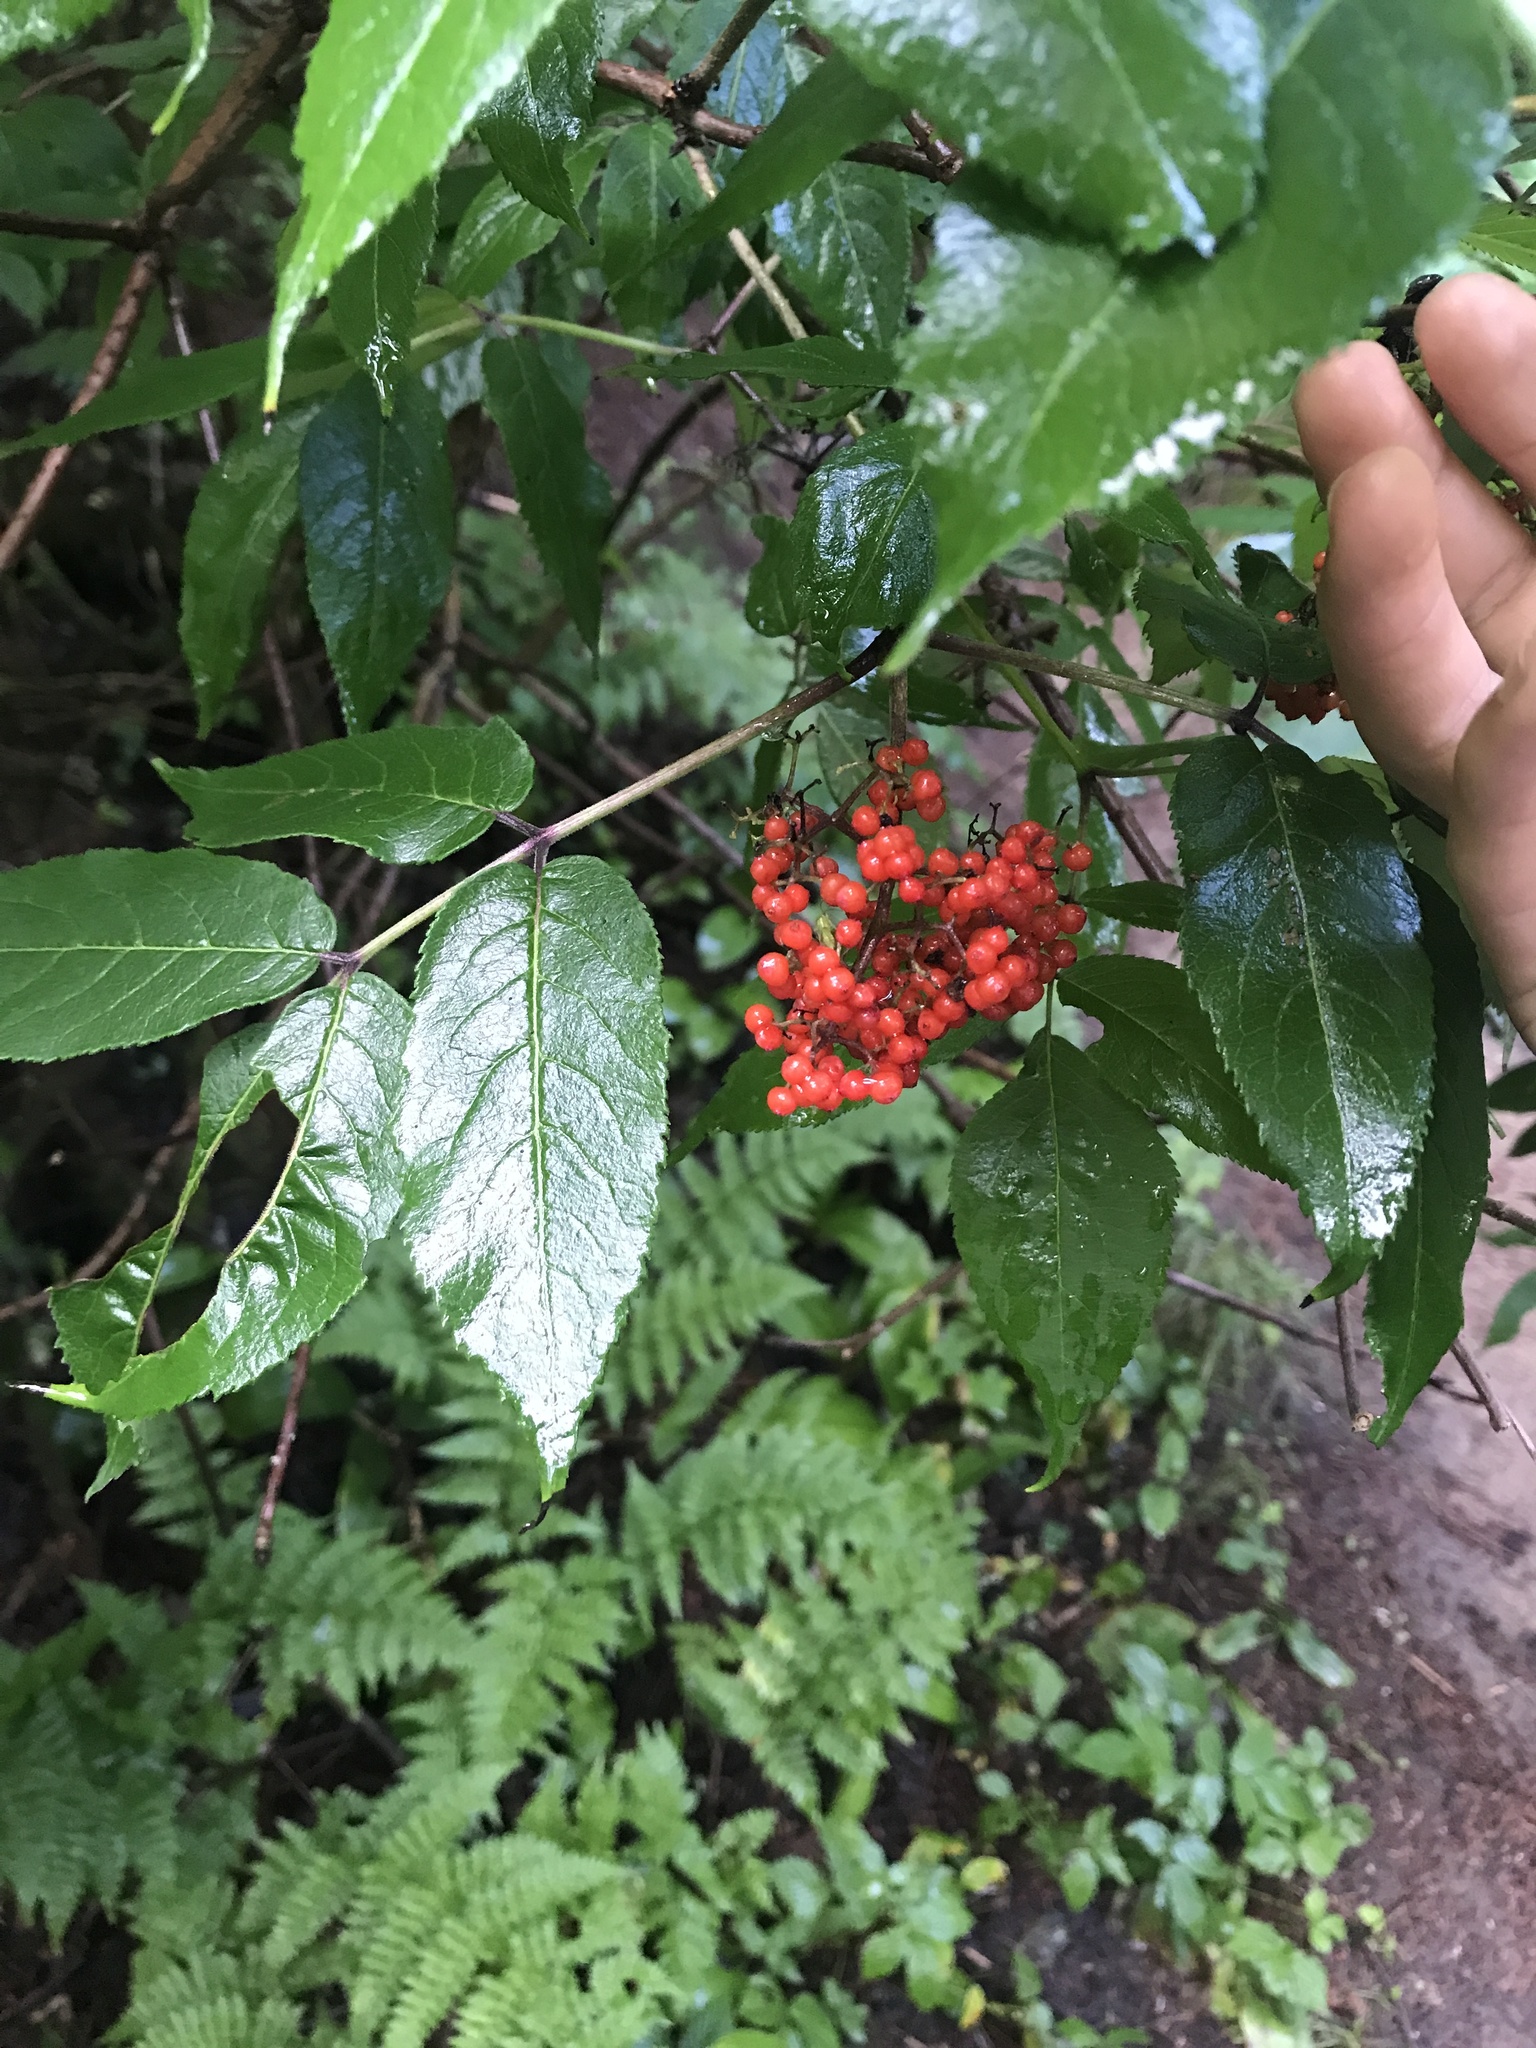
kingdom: Plantae
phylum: Tracheophyta
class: Magnoliopsida
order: Dipsacales
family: Viburnaceae
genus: Sambucus
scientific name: Sambucus racemosa
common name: Red-berried elder
